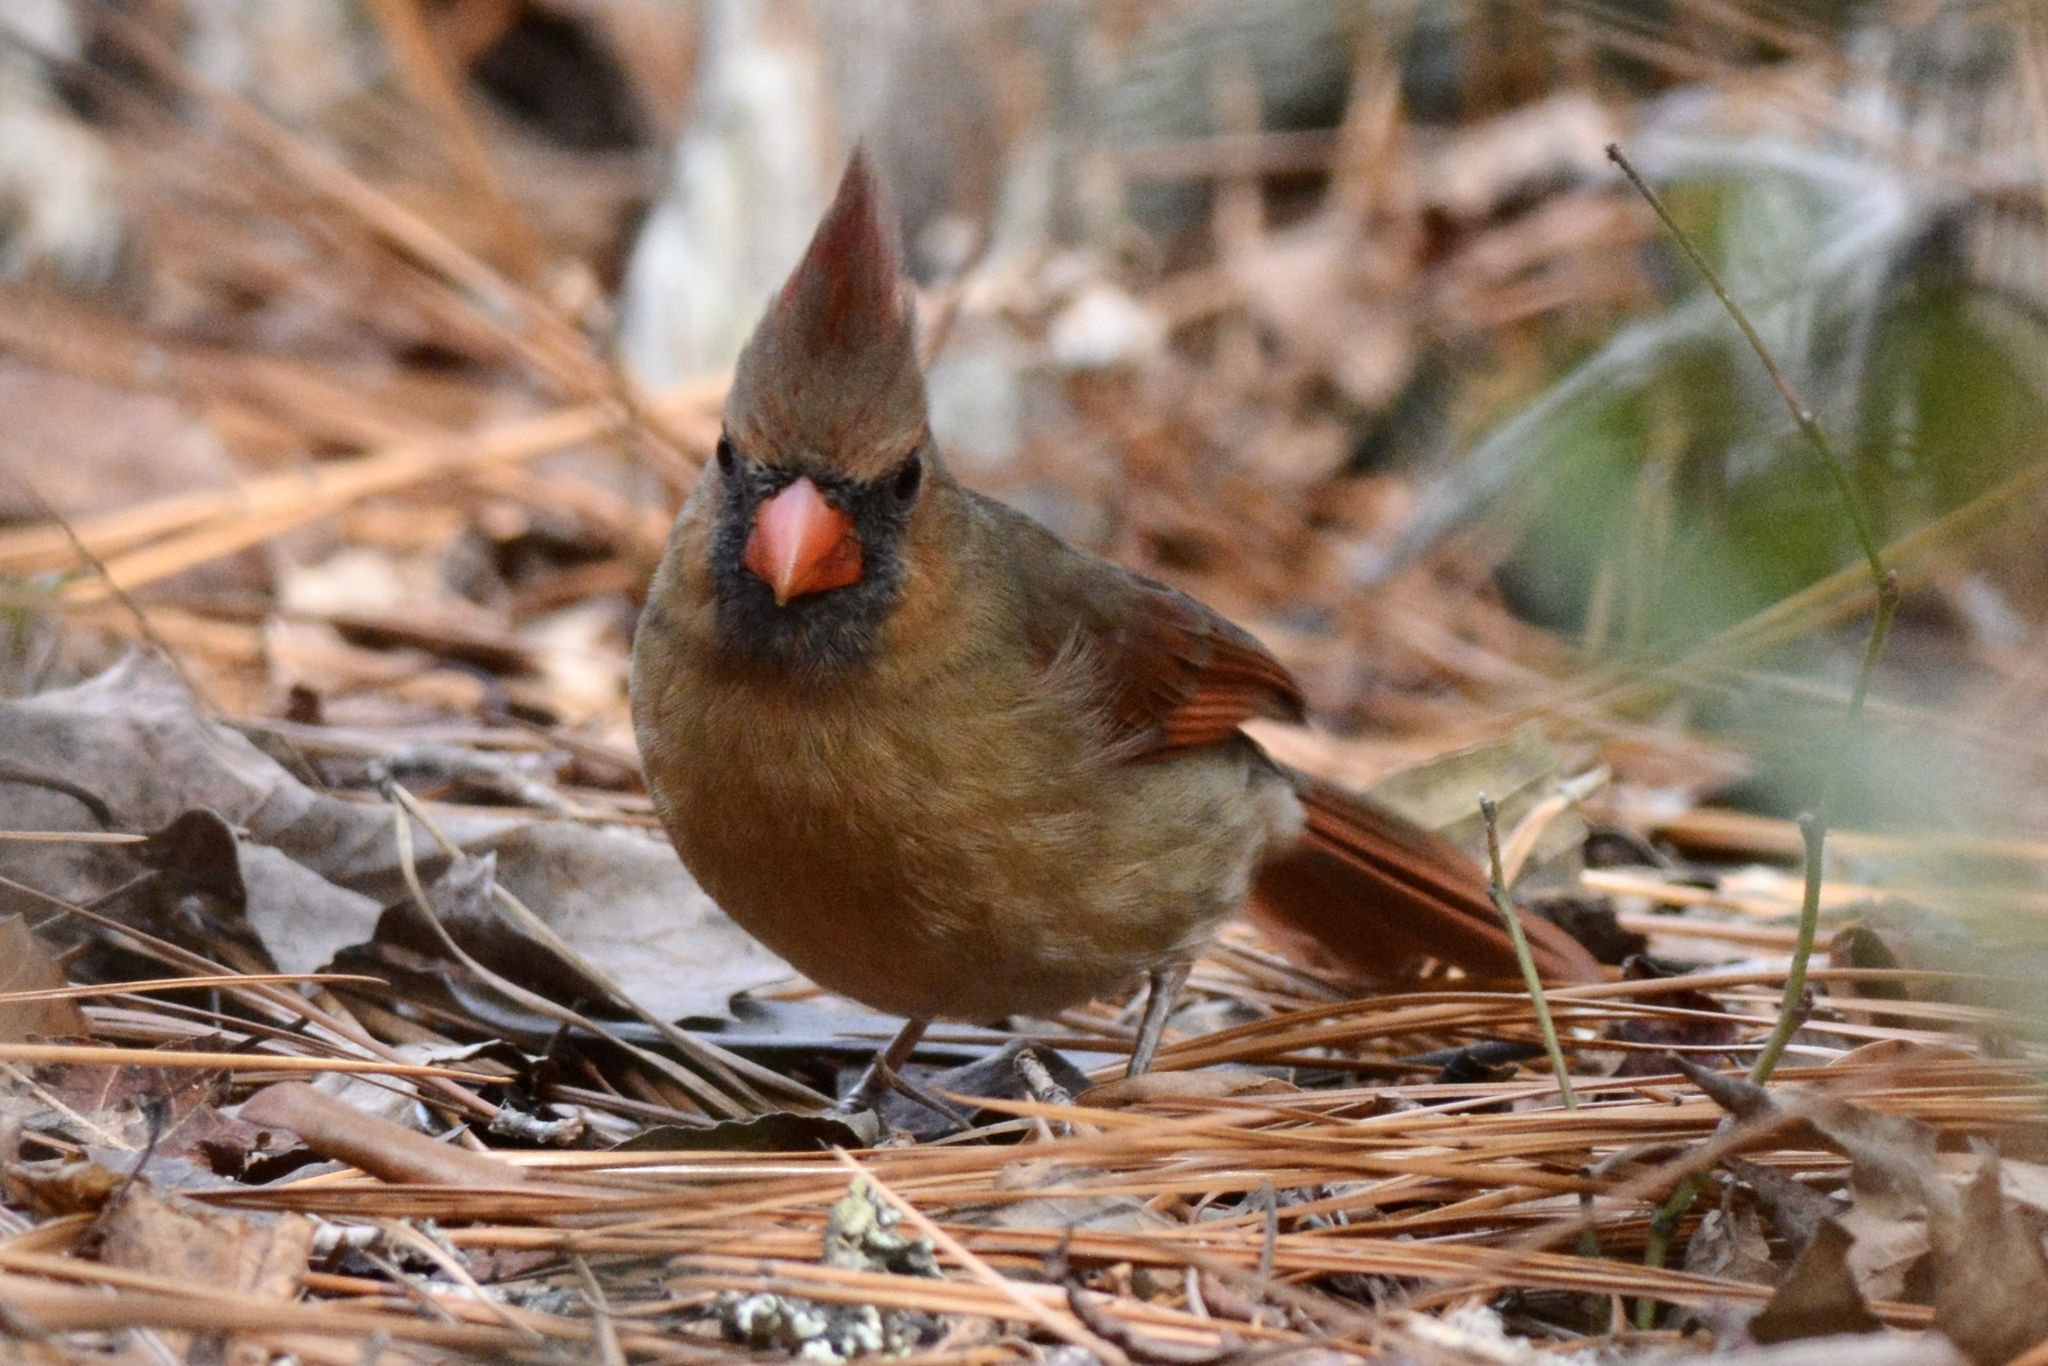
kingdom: Animalia
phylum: Chordata
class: Aves
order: Passeriformes
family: Cardinalidae
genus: Cardinalis
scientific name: Cardinalis cardinalis
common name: Northern cardinal
